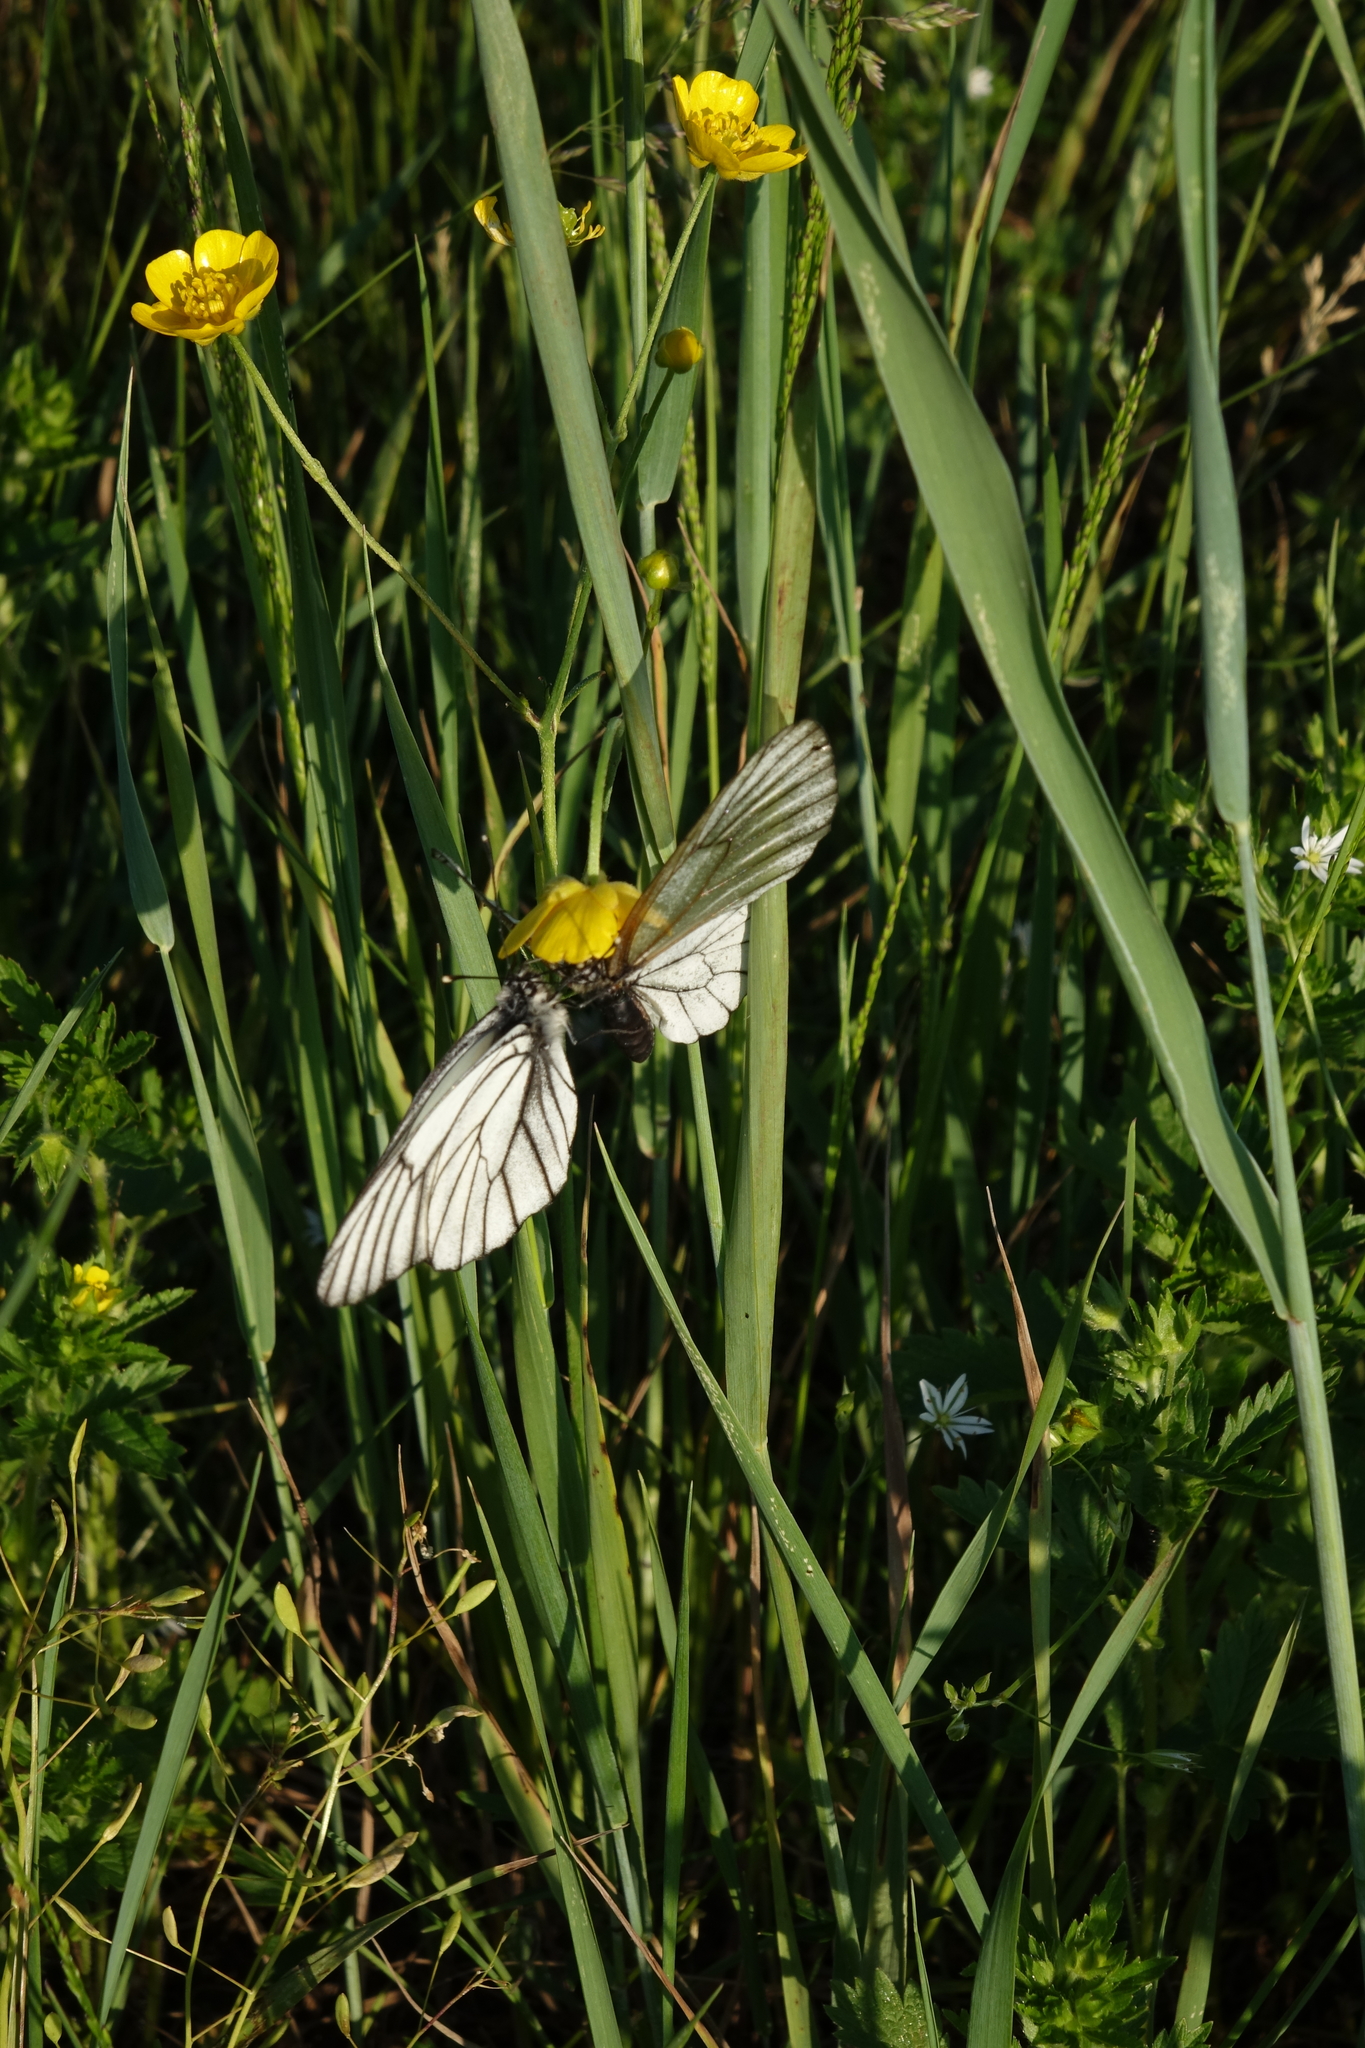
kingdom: Animalia
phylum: Arthropoda
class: Insecta
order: Lepidoptera
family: Pieridae
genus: Aporia
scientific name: Aporia crataegi
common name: Black-veined white
